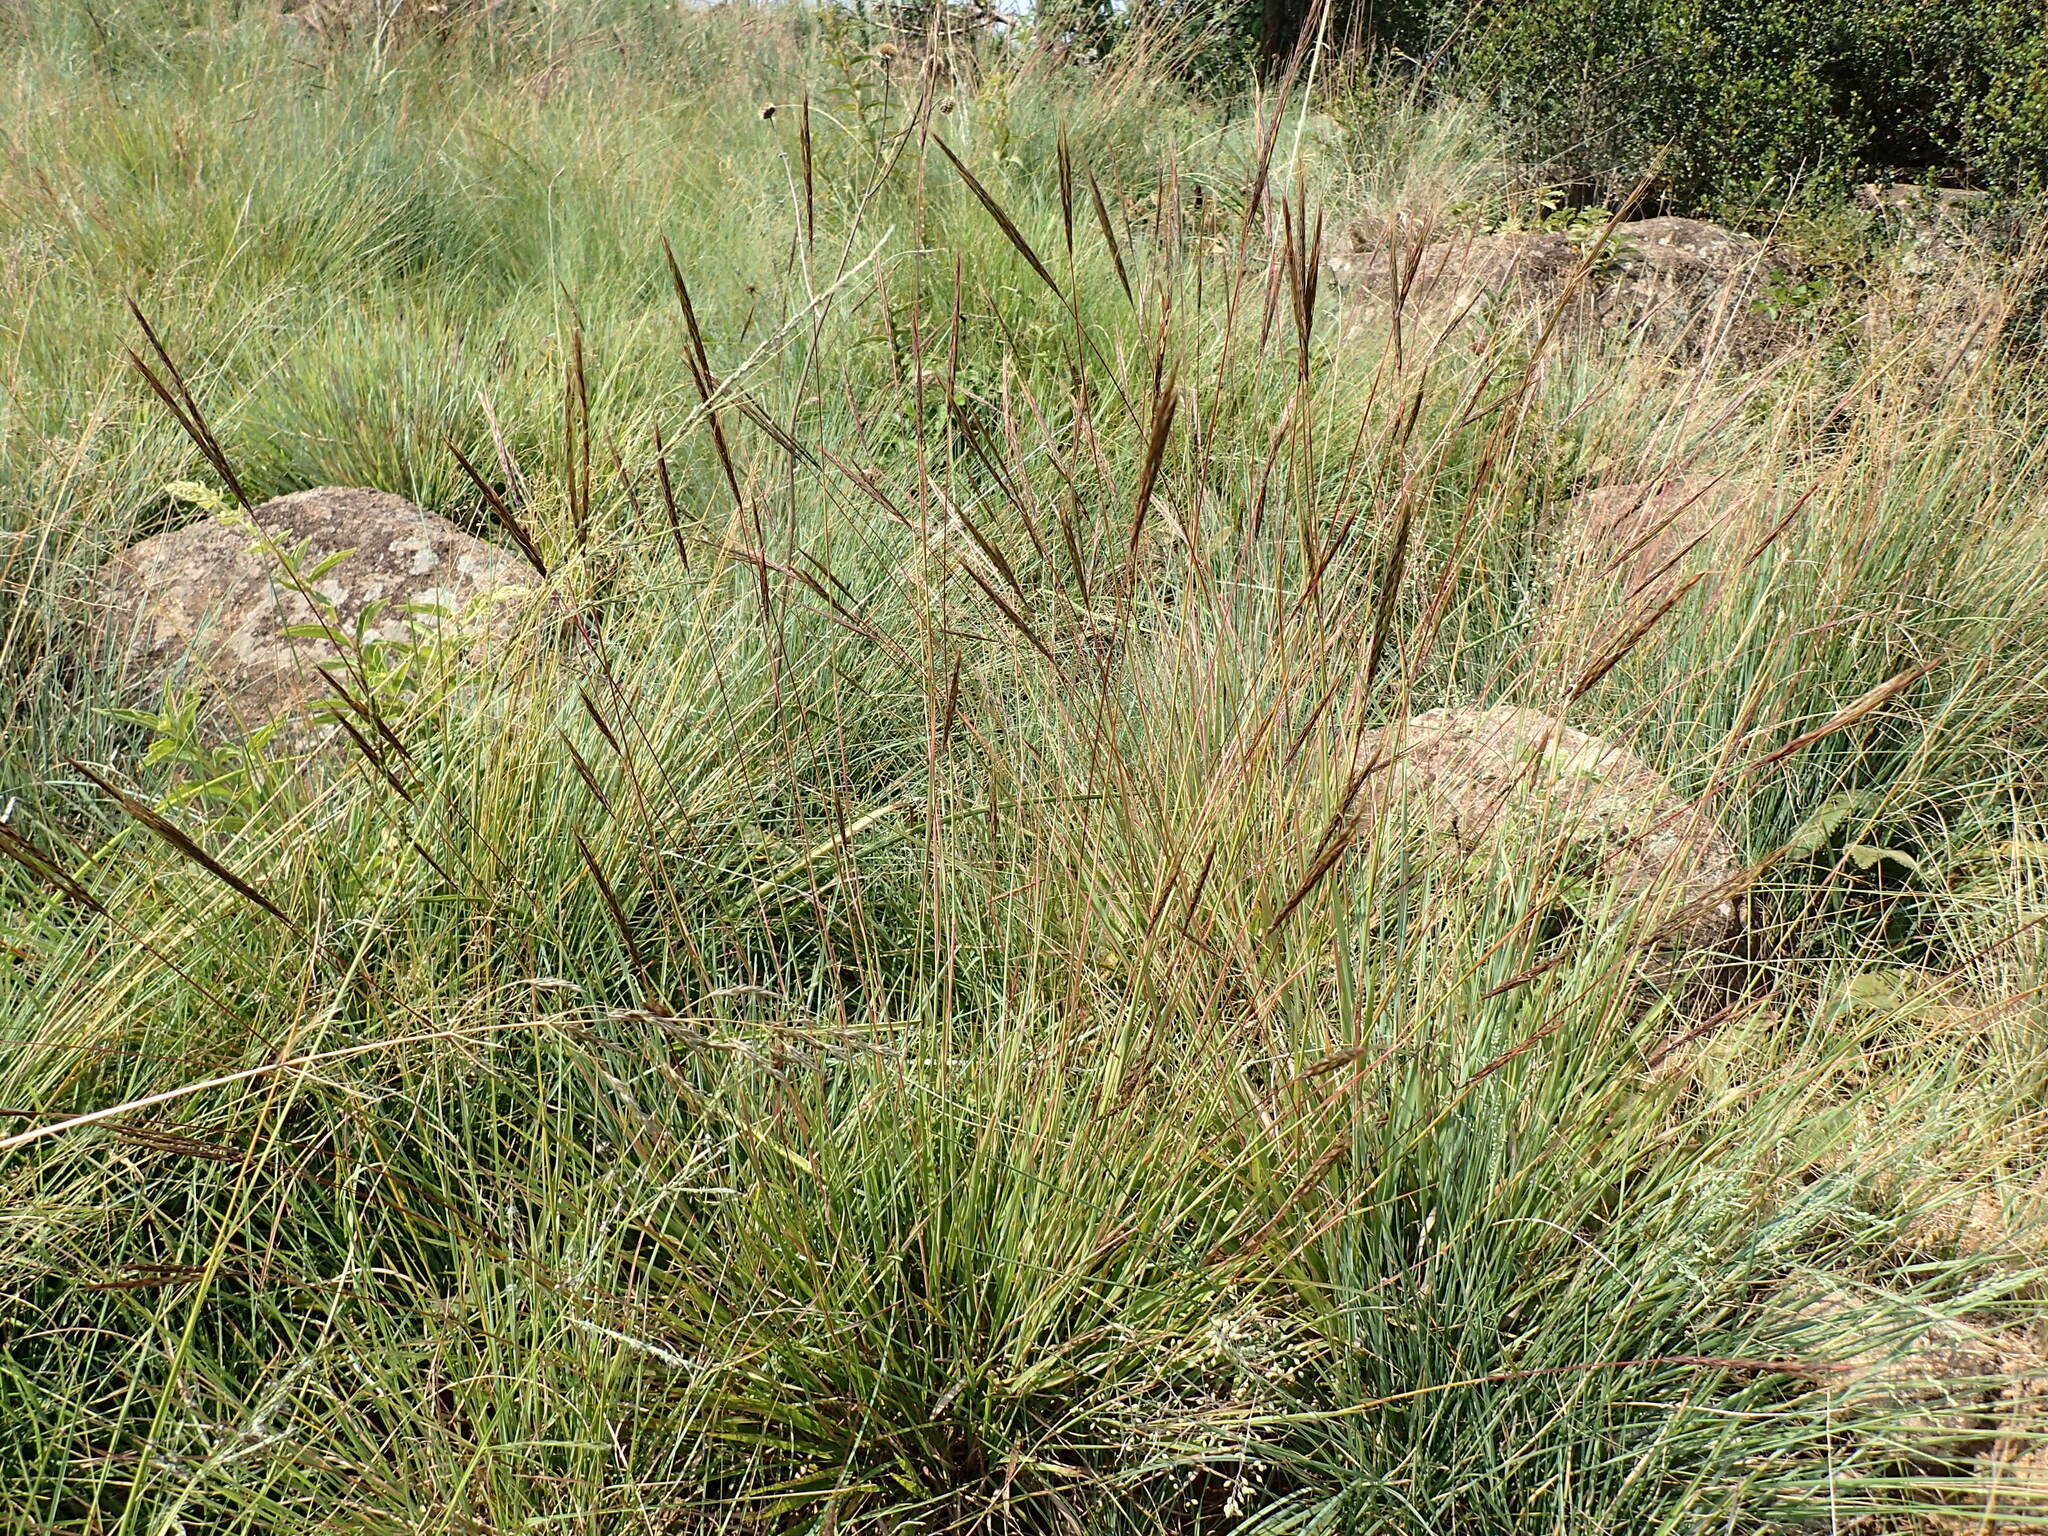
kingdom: Plantae
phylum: Tracheophyta
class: Liliopsida
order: Poales
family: Poaceae
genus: Diheteropogon
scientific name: Diheteropogon amplectens
